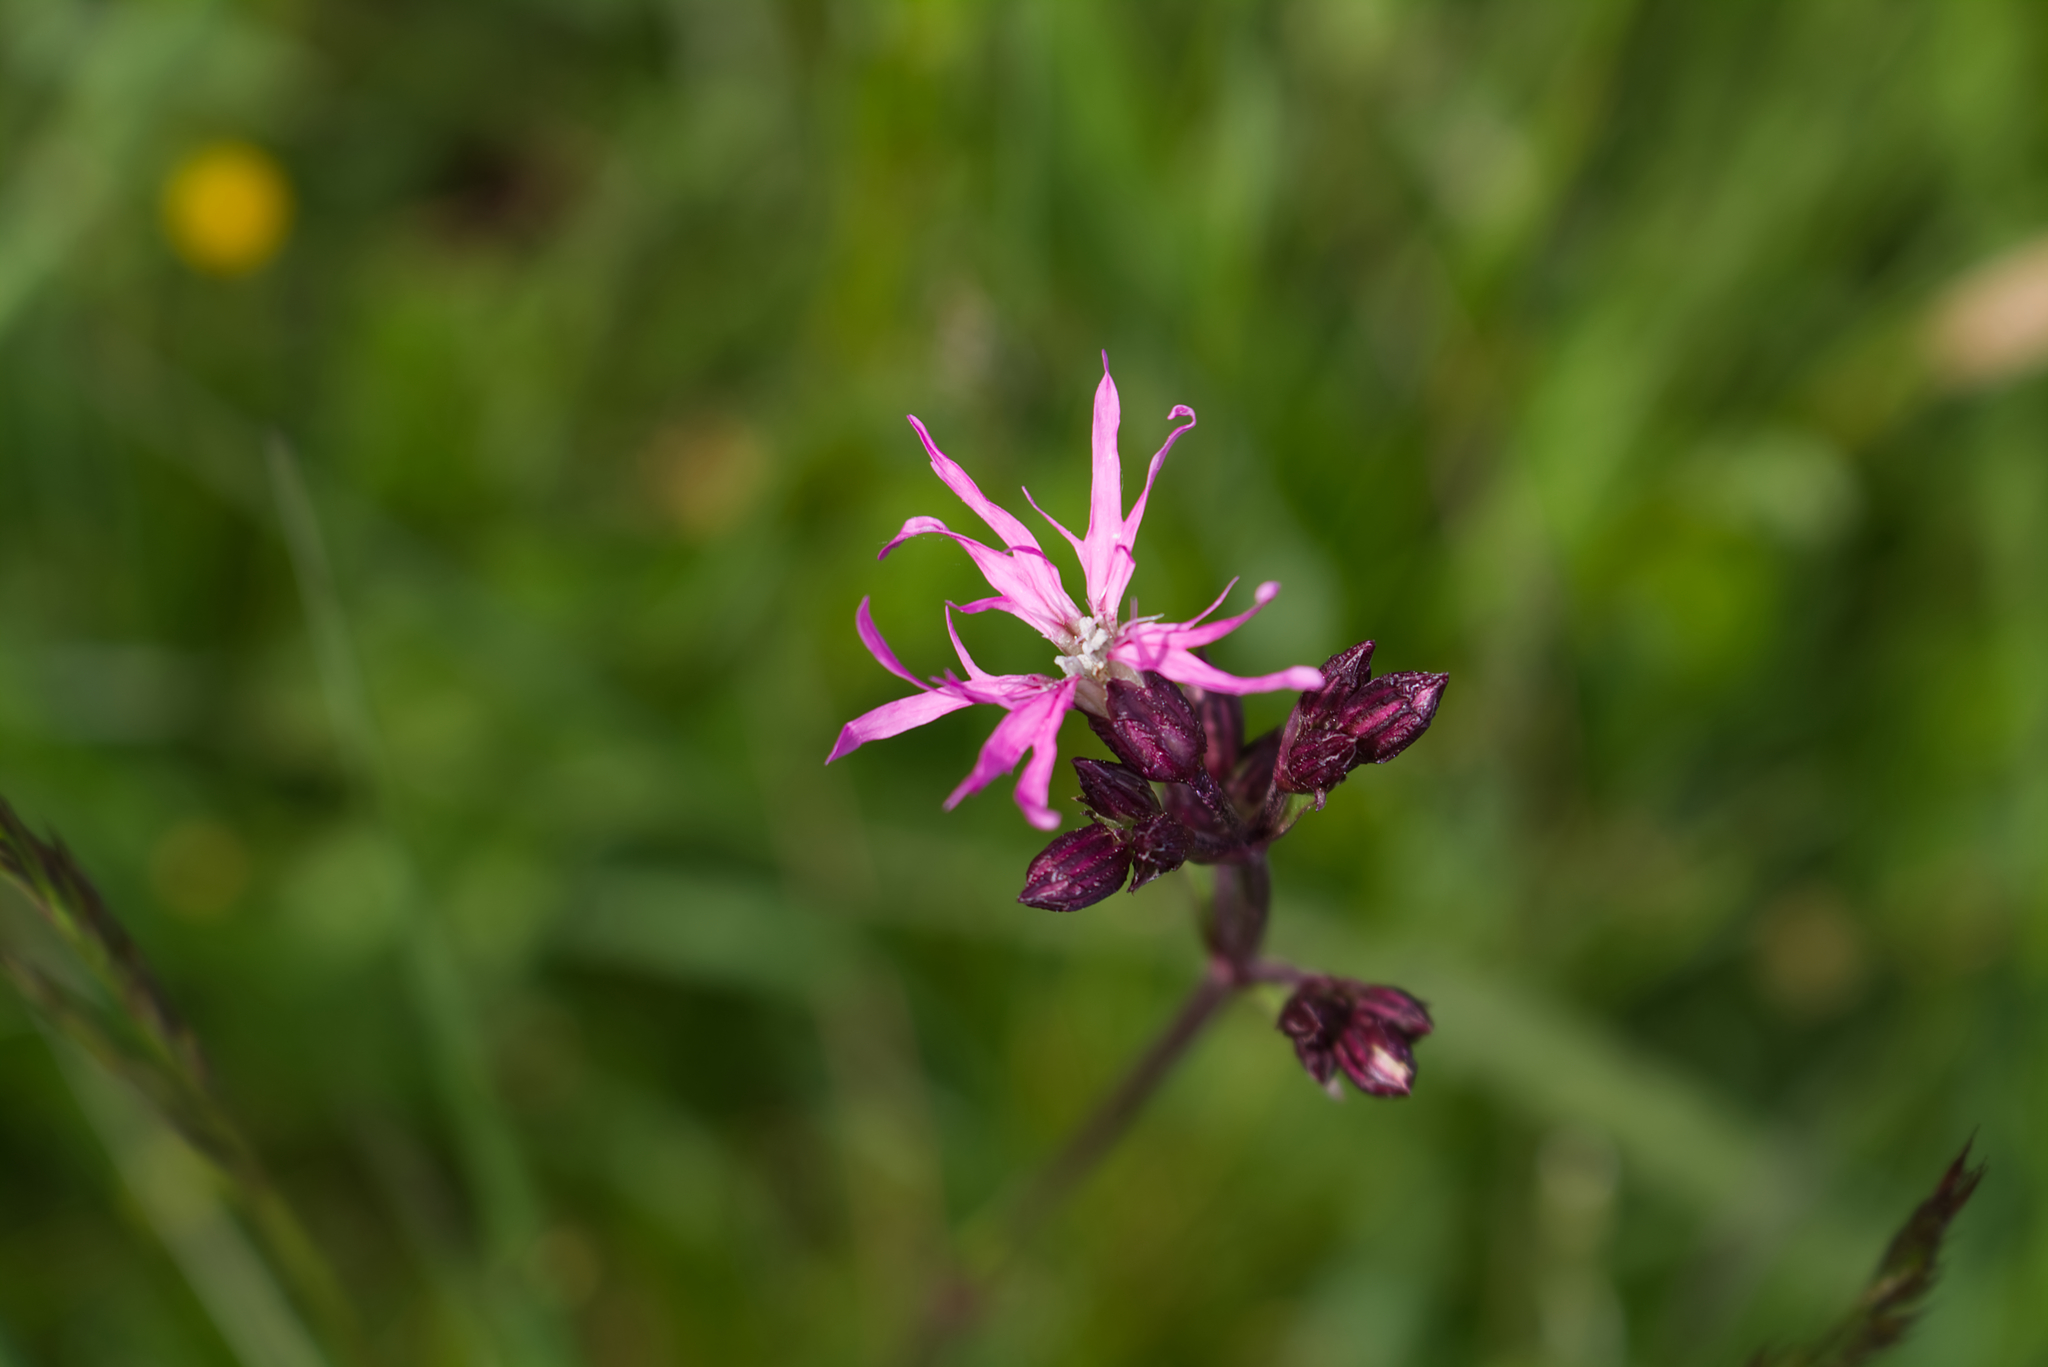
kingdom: Plantae
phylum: Tracheophyta
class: Magnoliopsida
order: Caryophyllales
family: Caryophyllaceae
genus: Silene
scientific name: Silene flos-cuculi
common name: Ragged-robin
